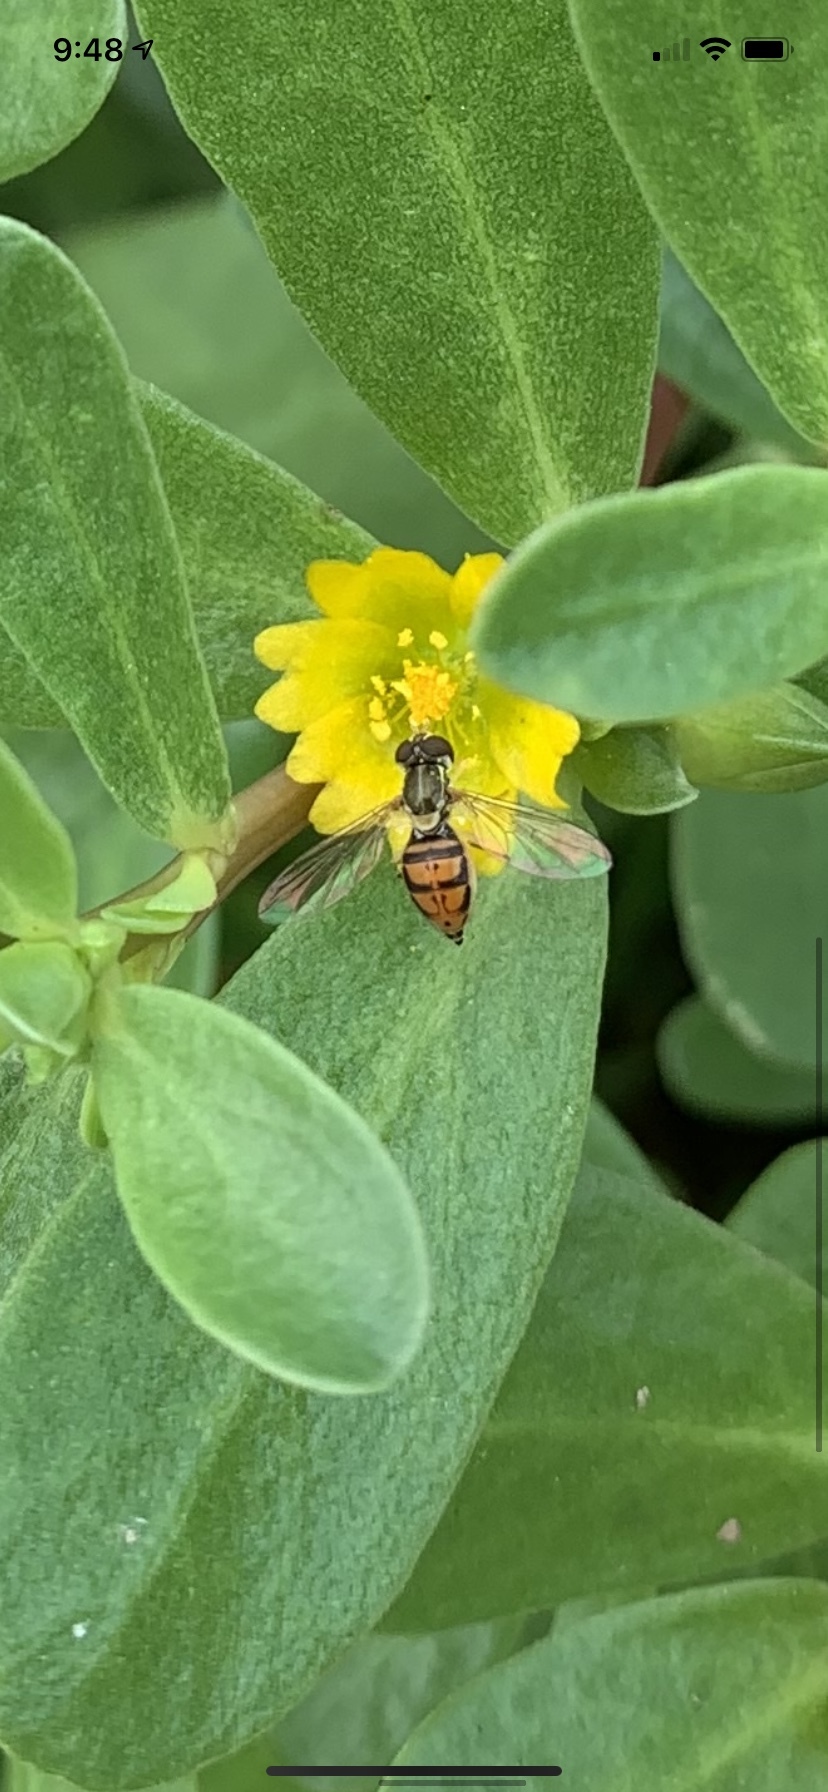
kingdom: Animalia
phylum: Arthropoda
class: Insecta
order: Diptera
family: Syrphidae
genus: Toxomerus
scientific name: Toxomerus marginatus
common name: Syrphid fly
